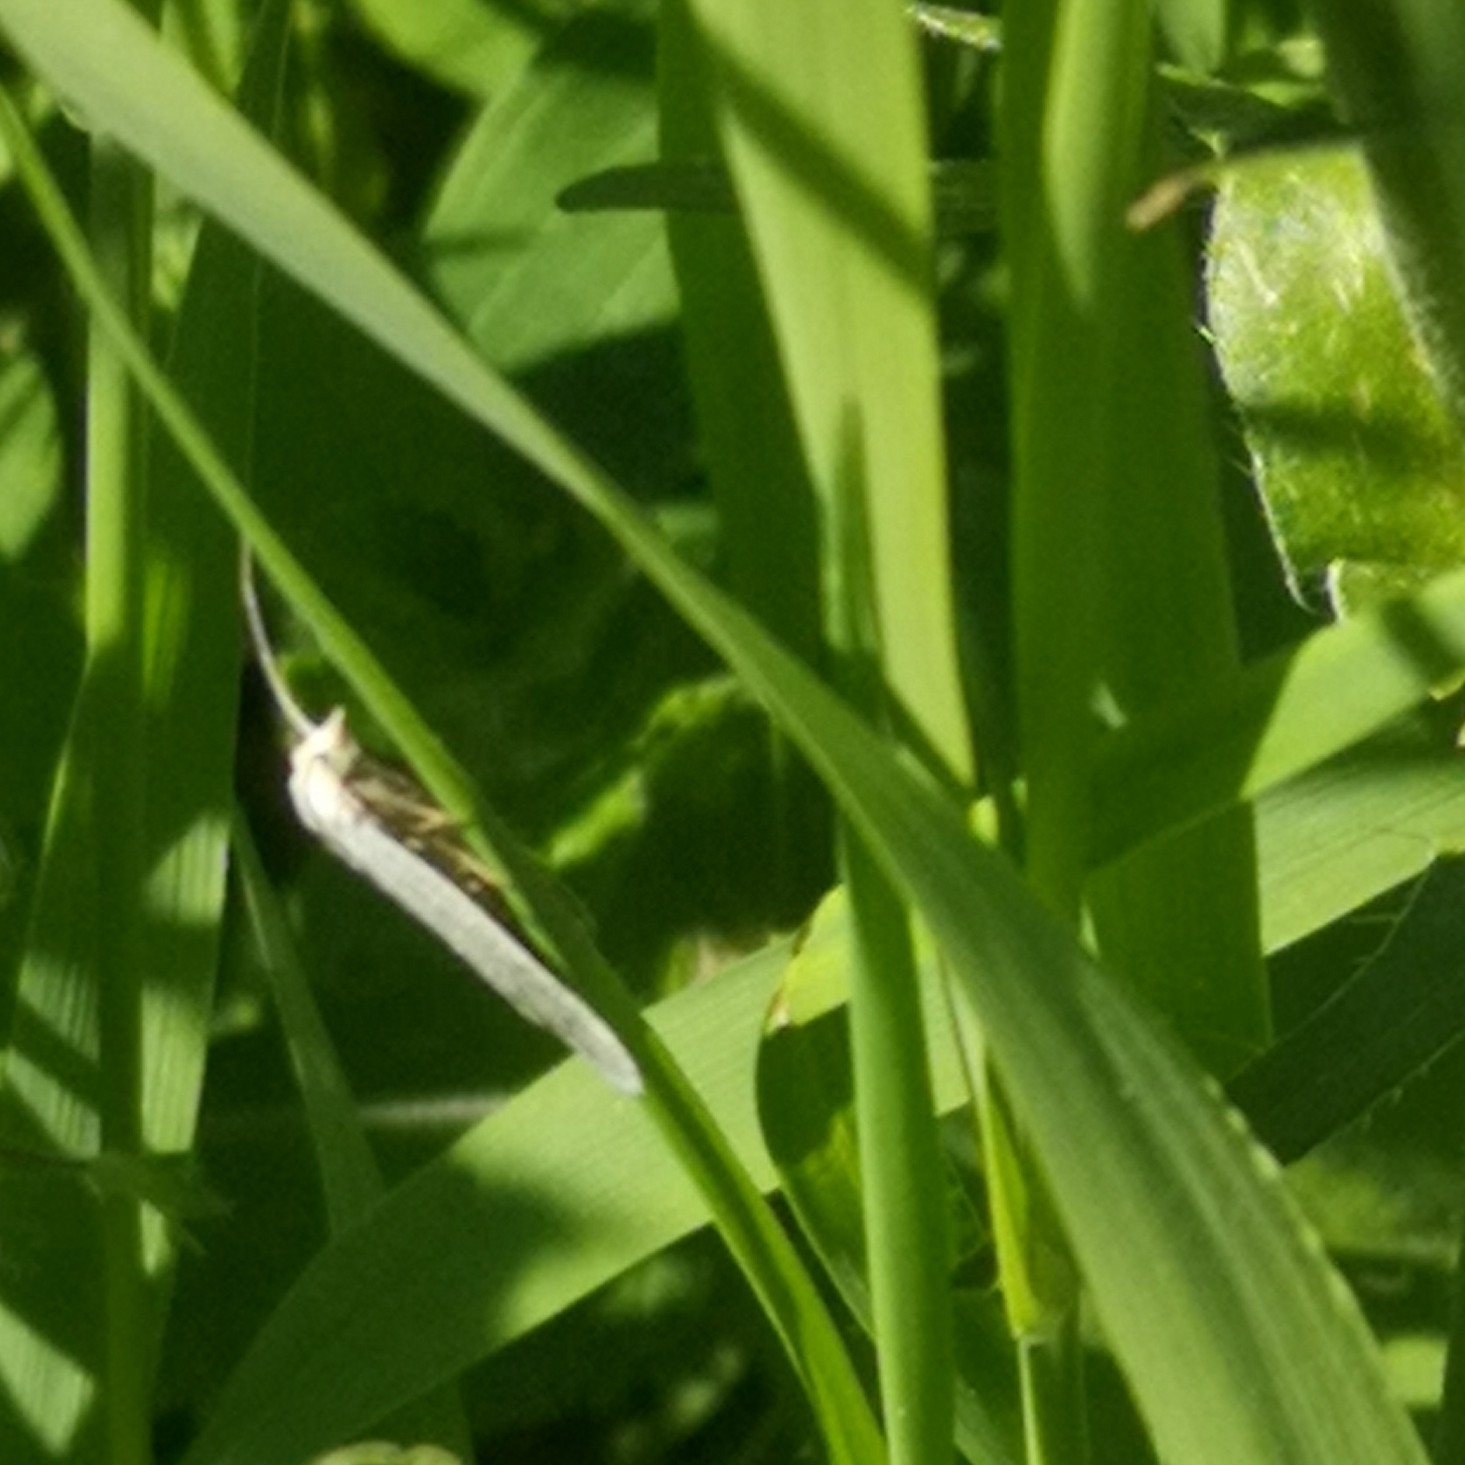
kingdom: Animalia
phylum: Arthropoda
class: Insecta
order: Lepidoptera
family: Tortricidae
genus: Eana
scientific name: Eana argentana
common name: Silver shade
